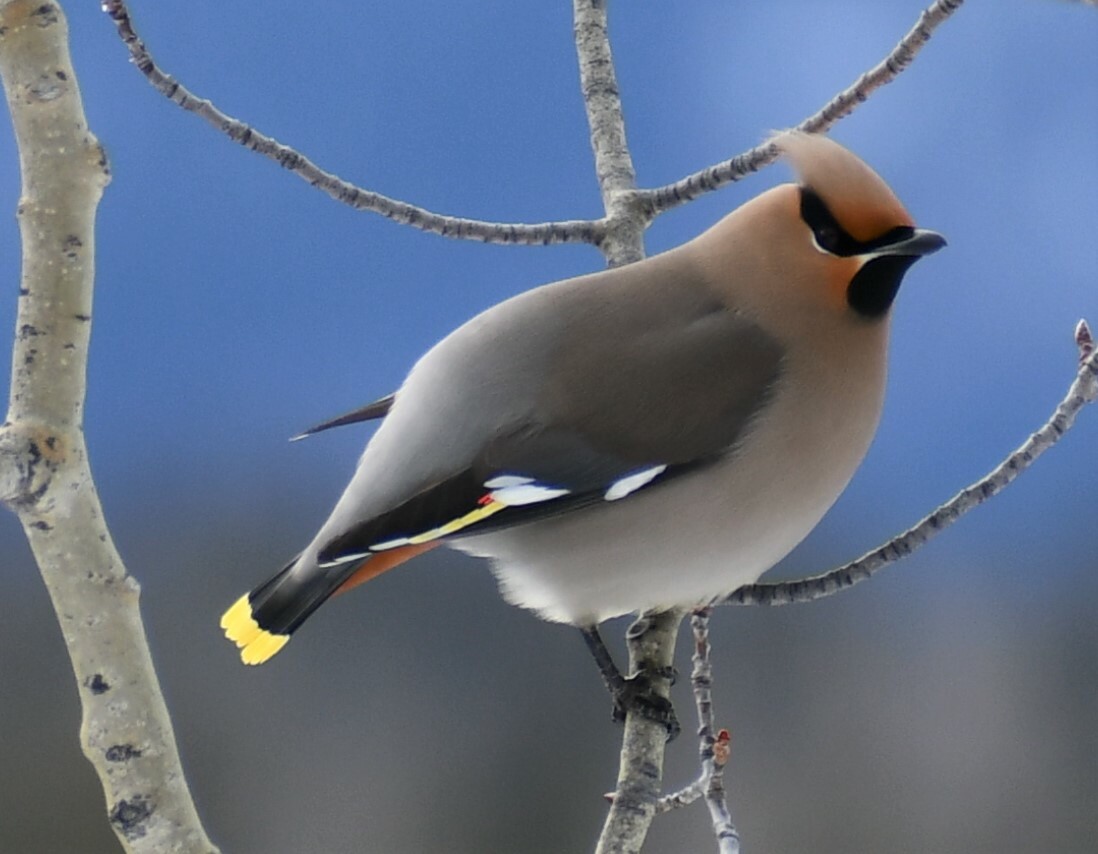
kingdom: Animalia
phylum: Chordata
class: Aves
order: Passeriformes
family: Bombycillidae
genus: Bombycilla
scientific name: Bombycilla garrulus
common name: Bohemian waxwing
